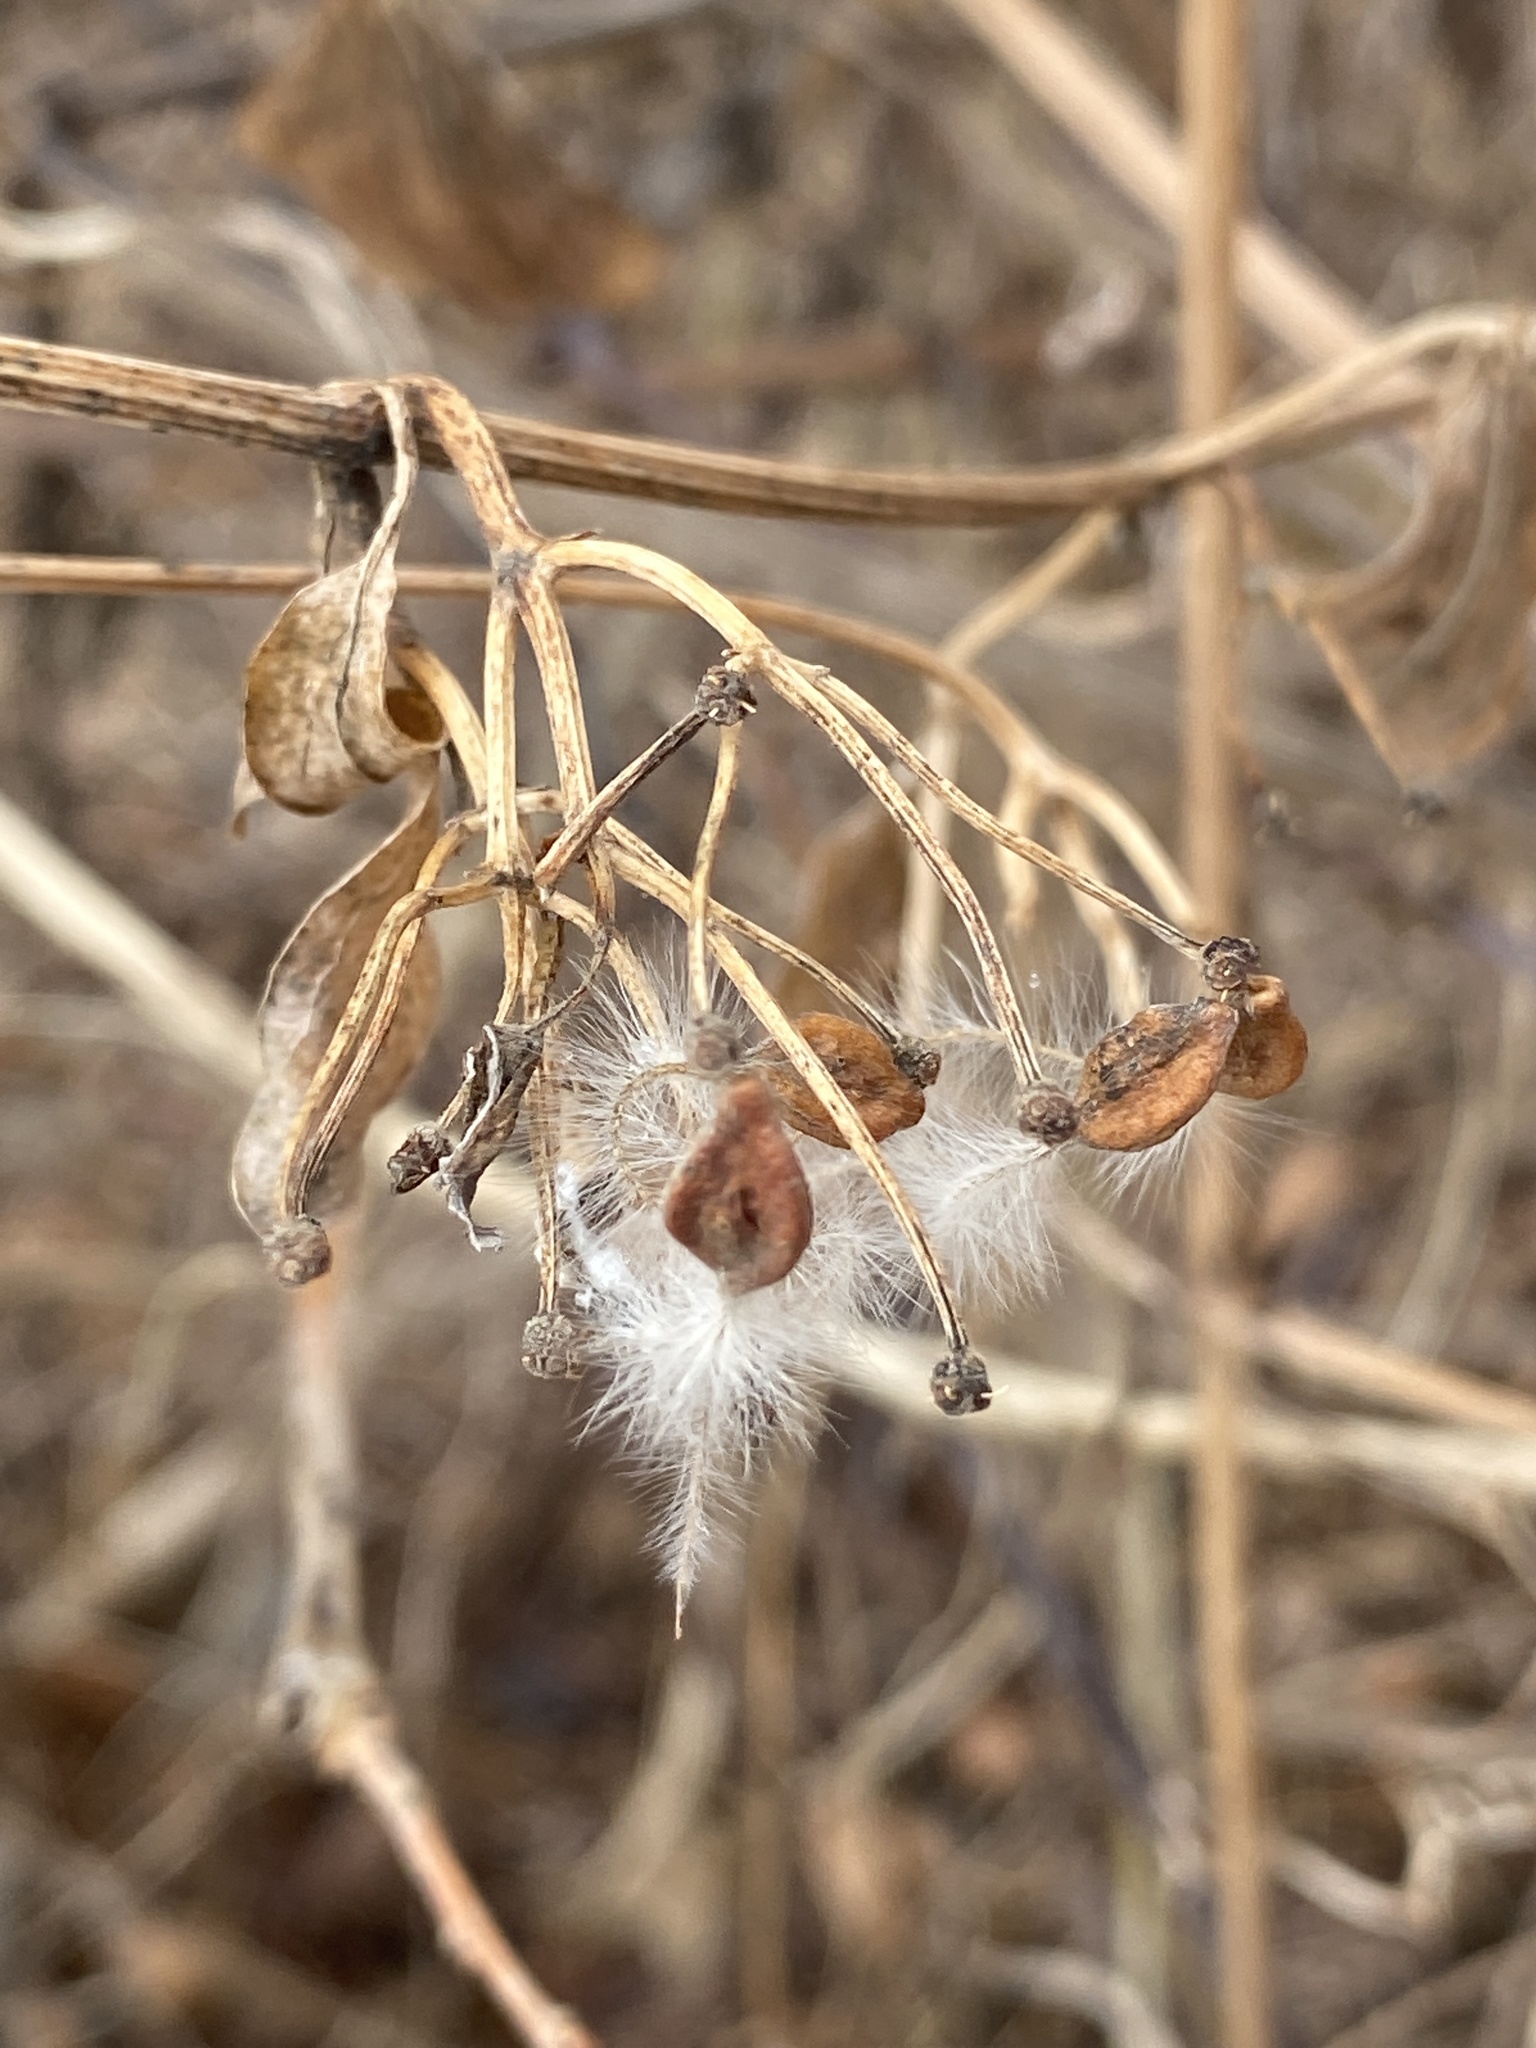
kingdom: Plantae
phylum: Tracheophyta
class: Magnoliopsida
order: Ranunculales
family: Ranunculaceae
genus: Clematis
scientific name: Clematis terniflora
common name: Sweet autumn clematis
